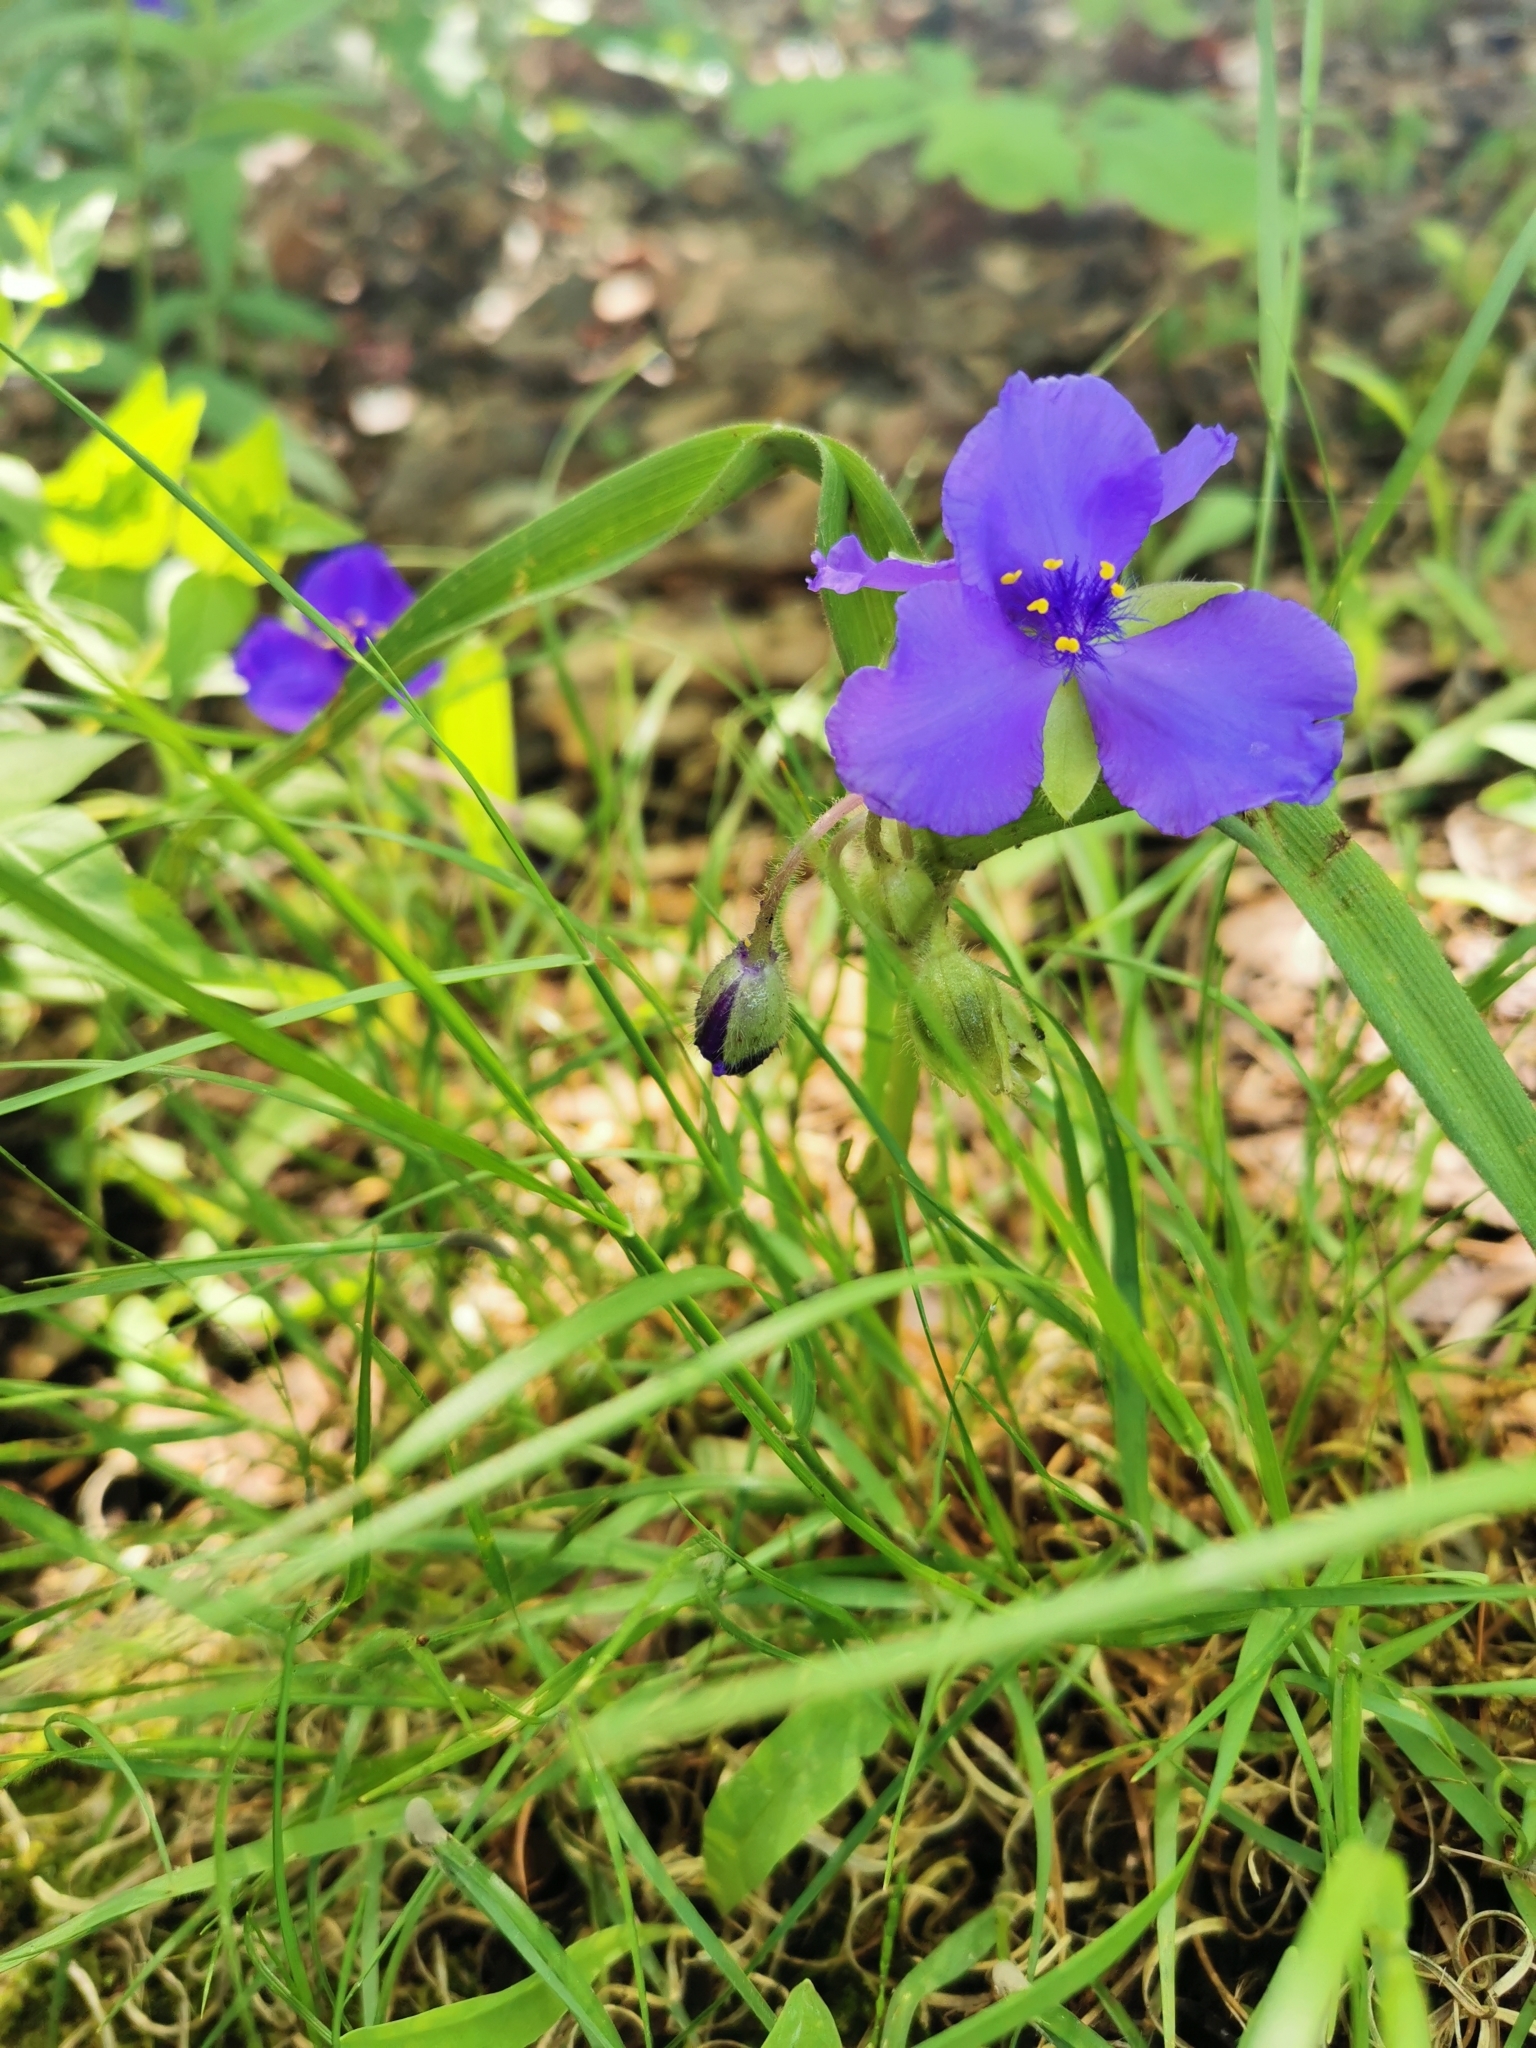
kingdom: Plantae
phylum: Tracheophyta
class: Liliopsida
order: Commelinales
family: Commelinaceae
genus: Tradescantia
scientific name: Tradescantia virginiana
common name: Spiderwort
